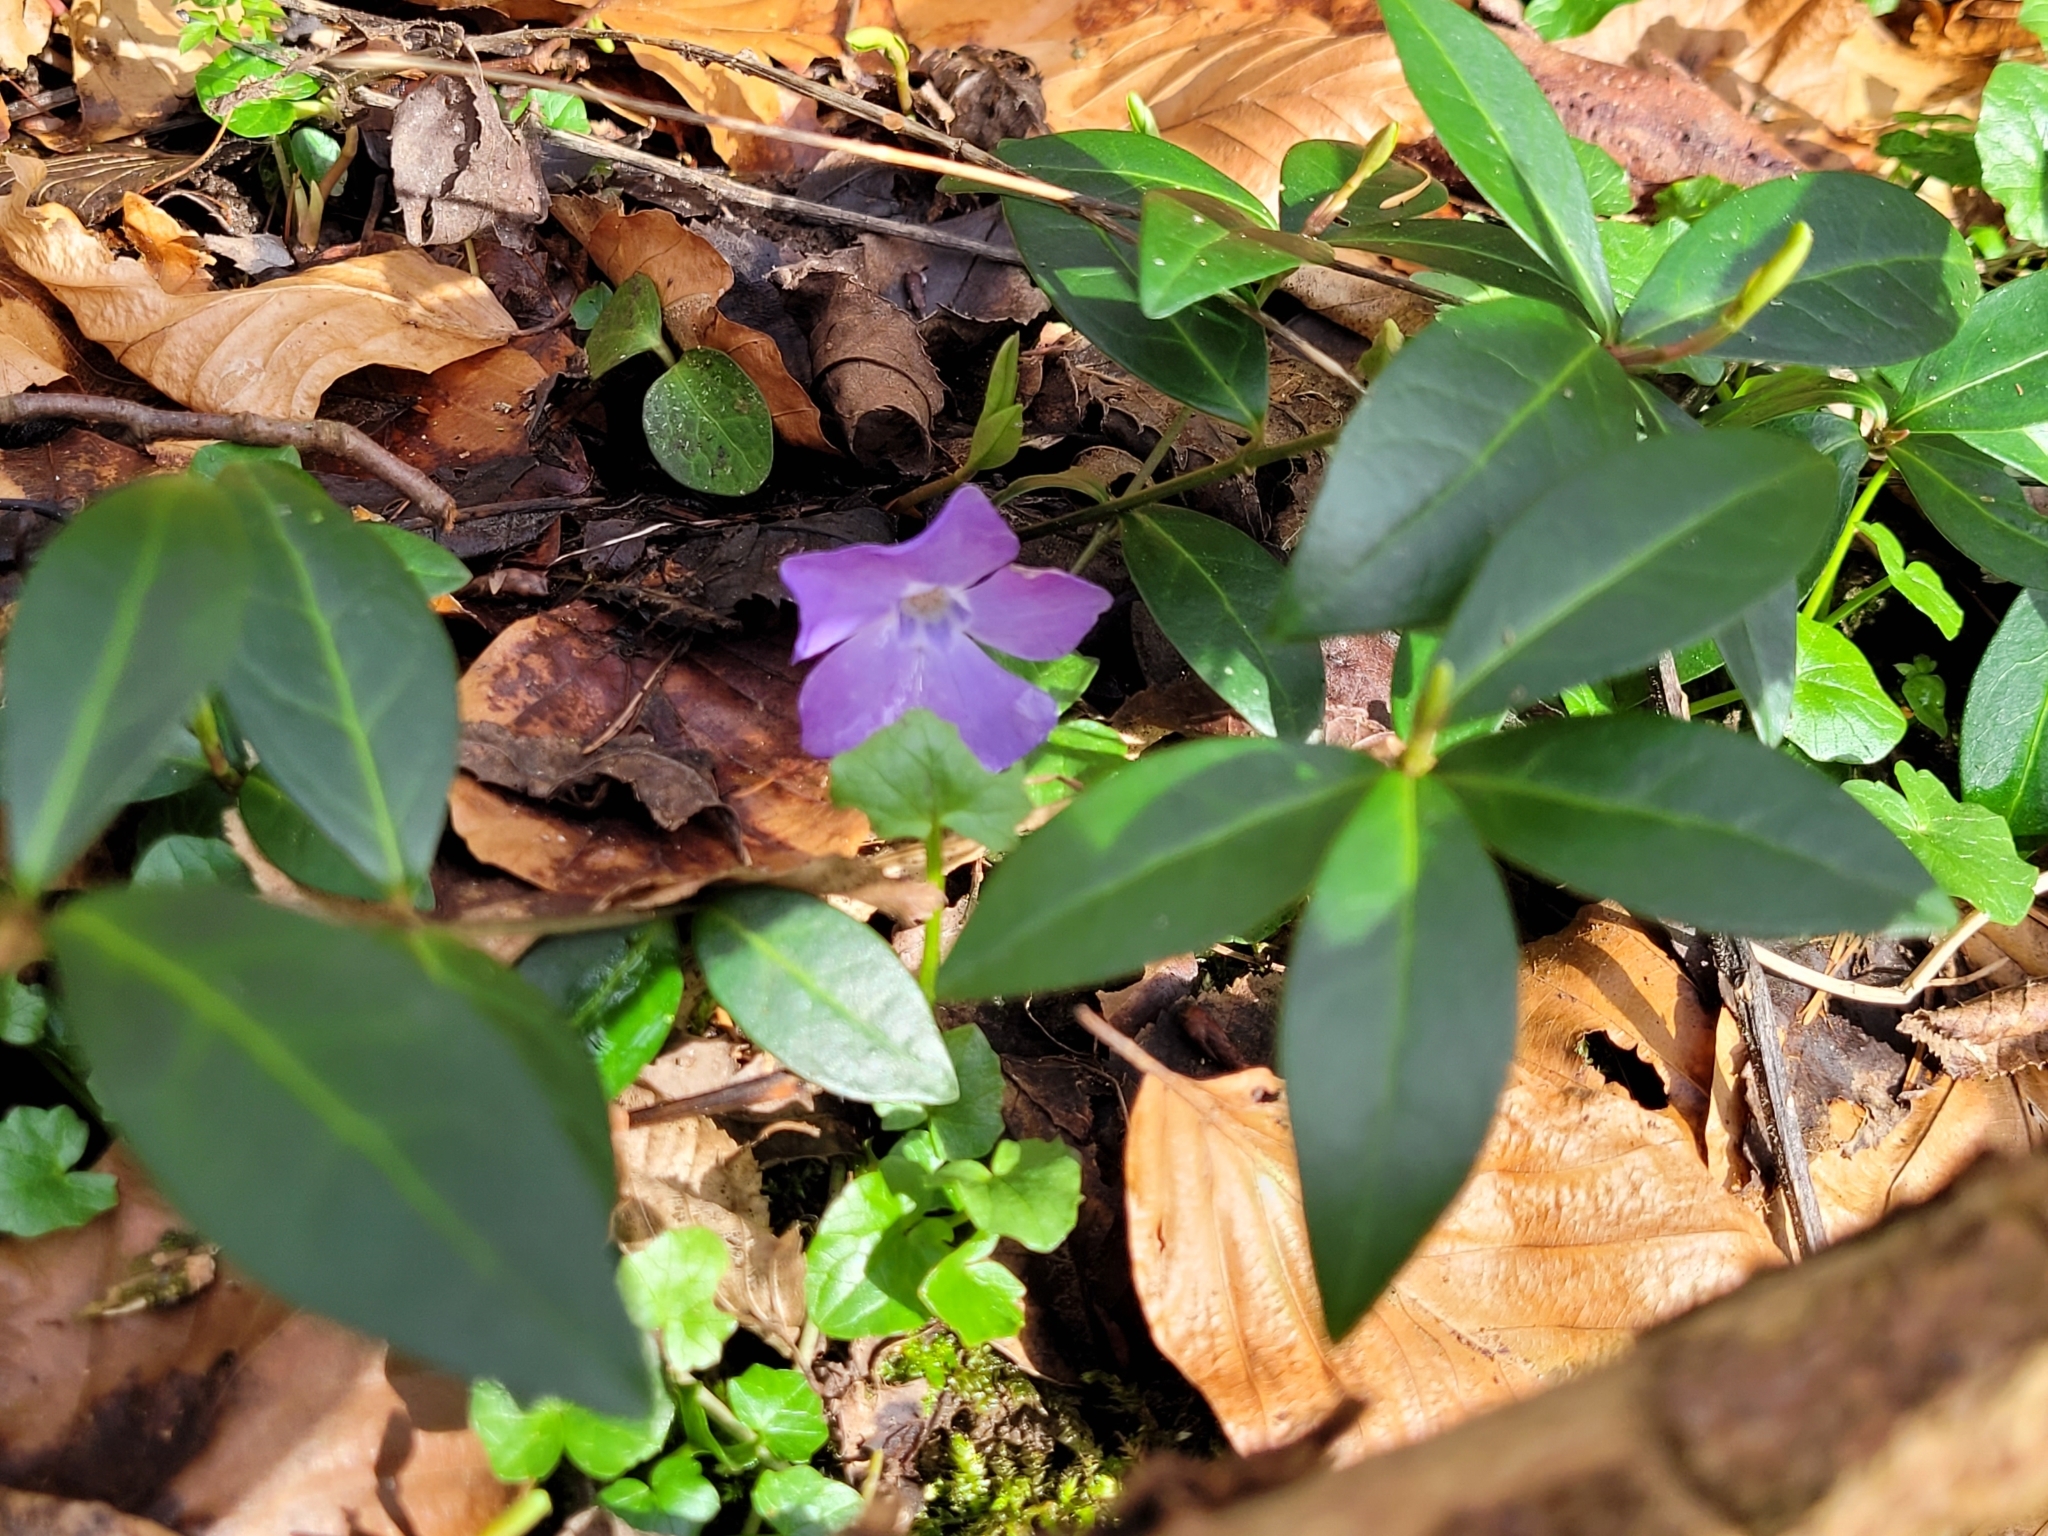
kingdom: Plantae
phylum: Tracheophyta
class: Magnoliopsida
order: Gentianales
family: Apocynaceae
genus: Vinca
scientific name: Vinca minor
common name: Lesser periwinkle
